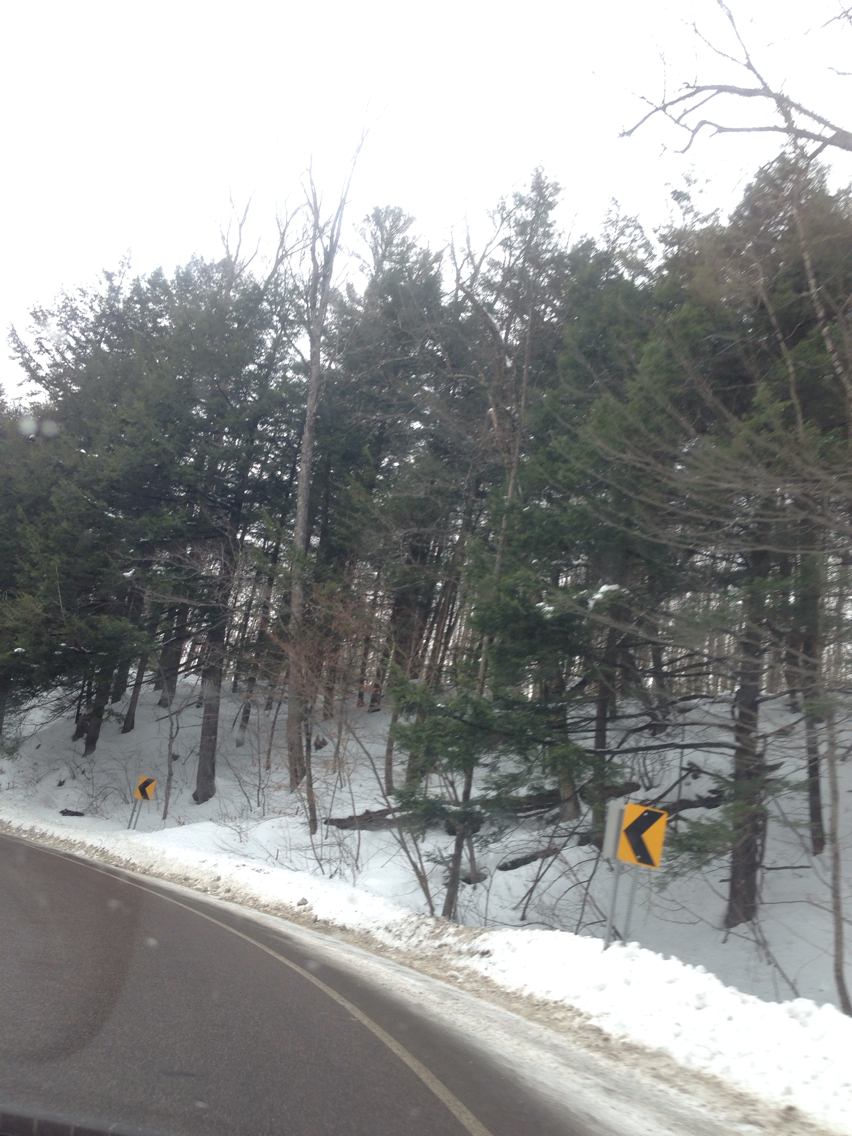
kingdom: Plantae
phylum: Tracheophyta
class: Pinopsida
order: Pinales
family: Pinaceae
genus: Pinus
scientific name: Pinus strobus
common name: Weymouth pine
